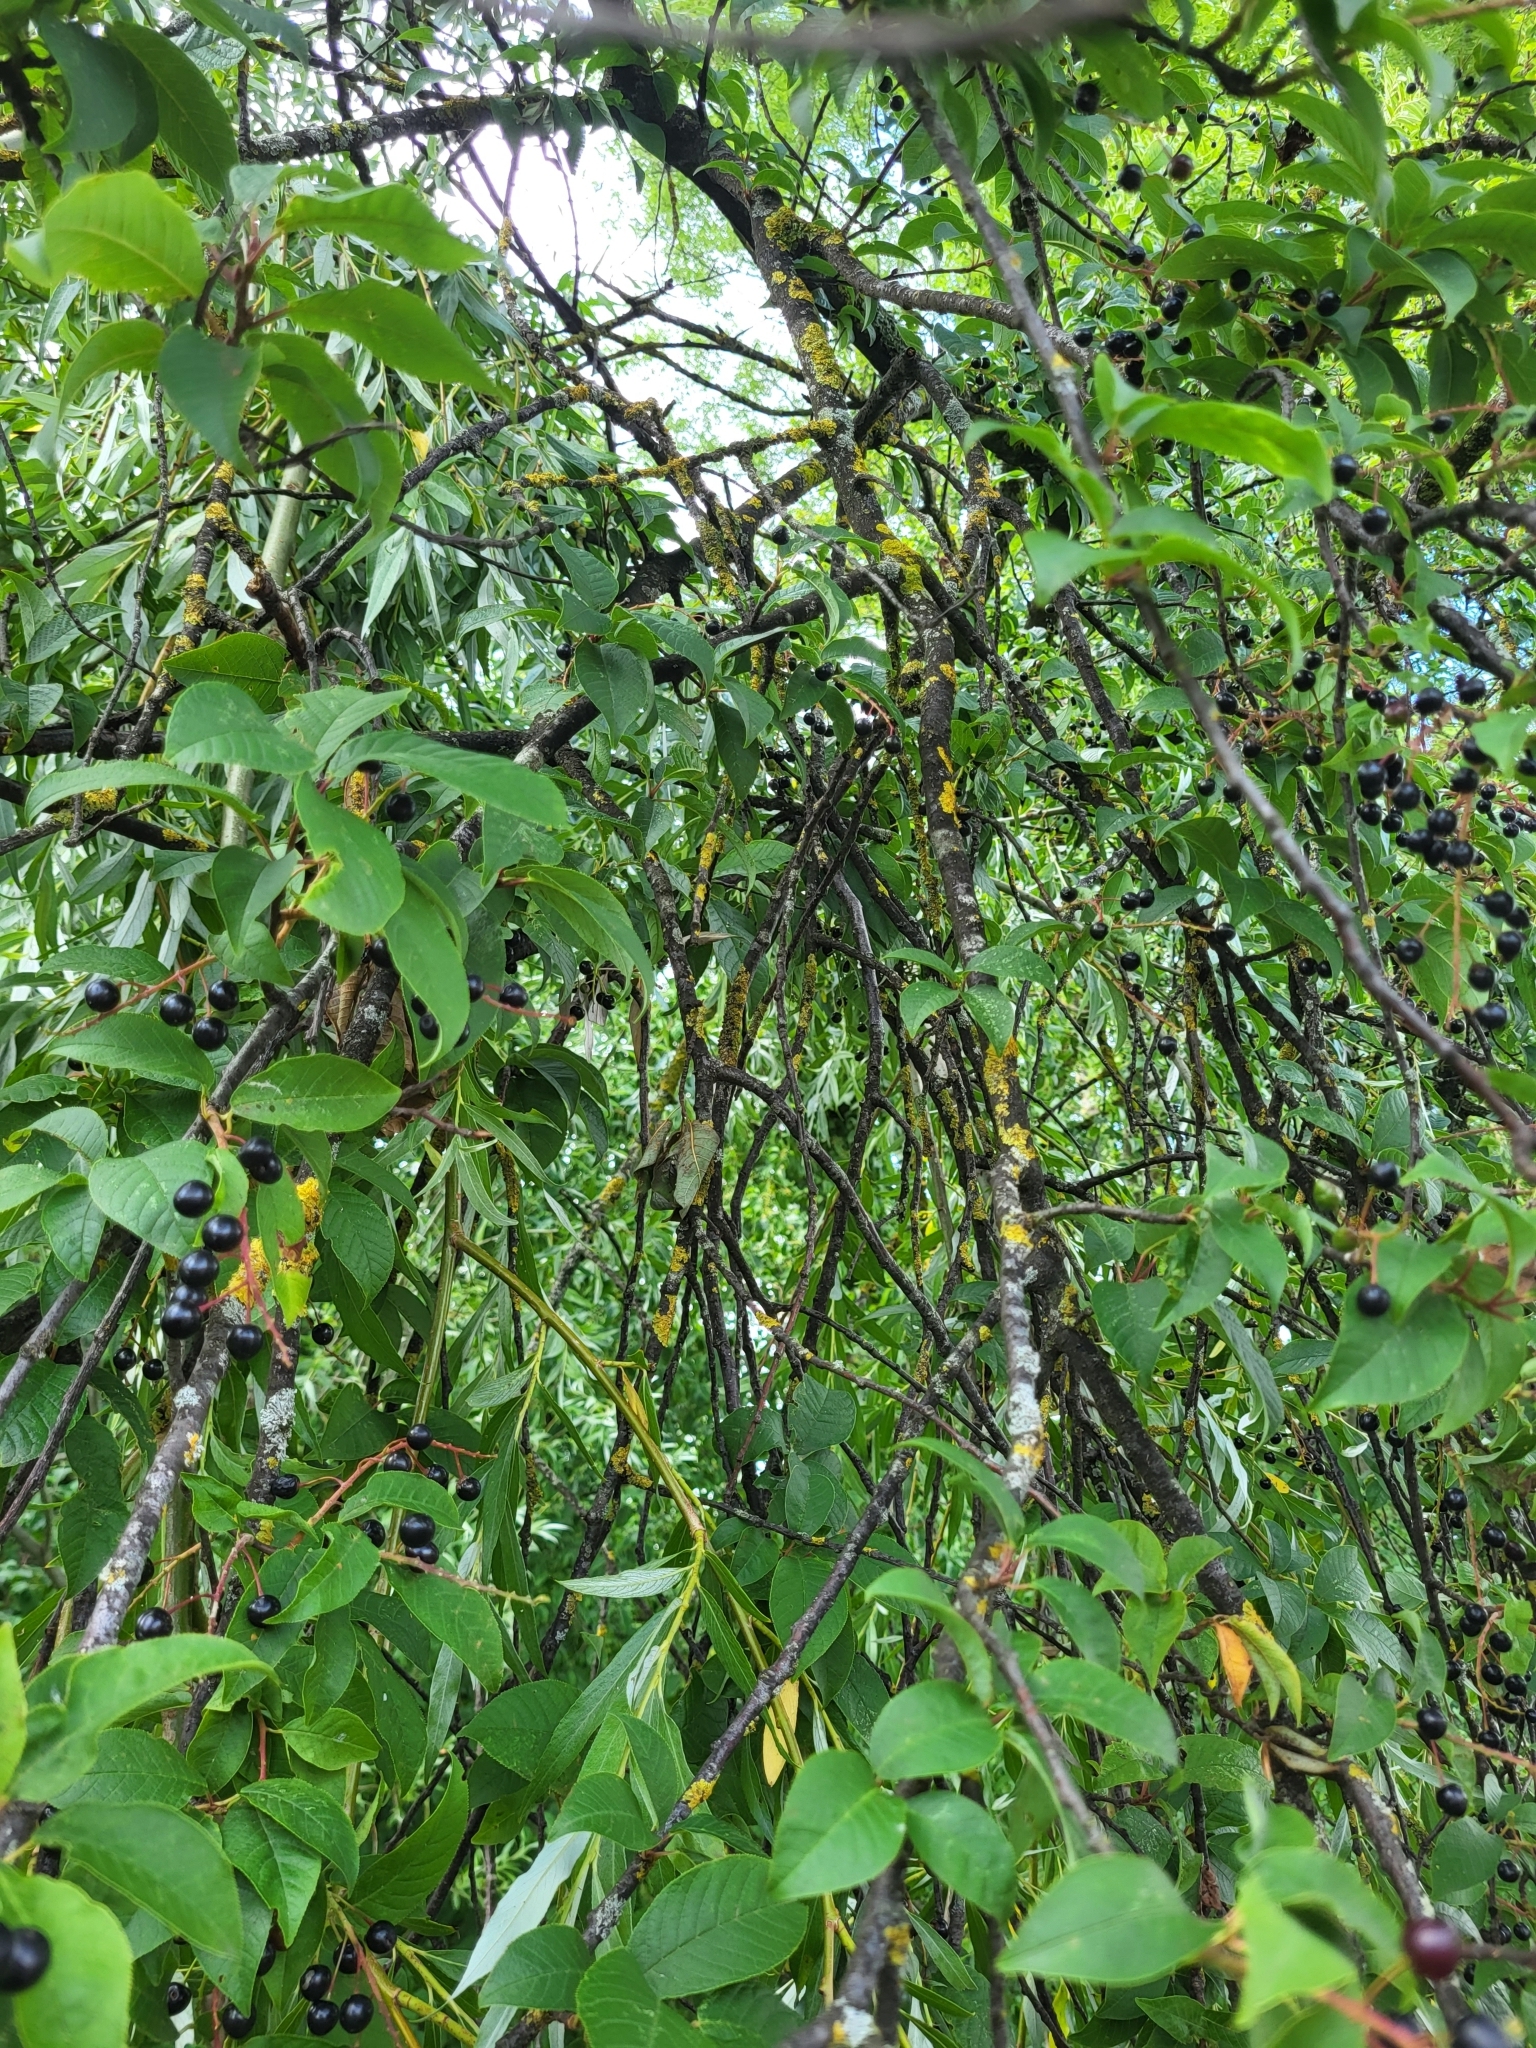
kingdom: Plantae
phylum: Tracheophyta
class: Magnoliopsida
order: Rosales
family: Rosaceae
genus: Prunus
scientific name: Prunus padus
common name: Bird cherry
